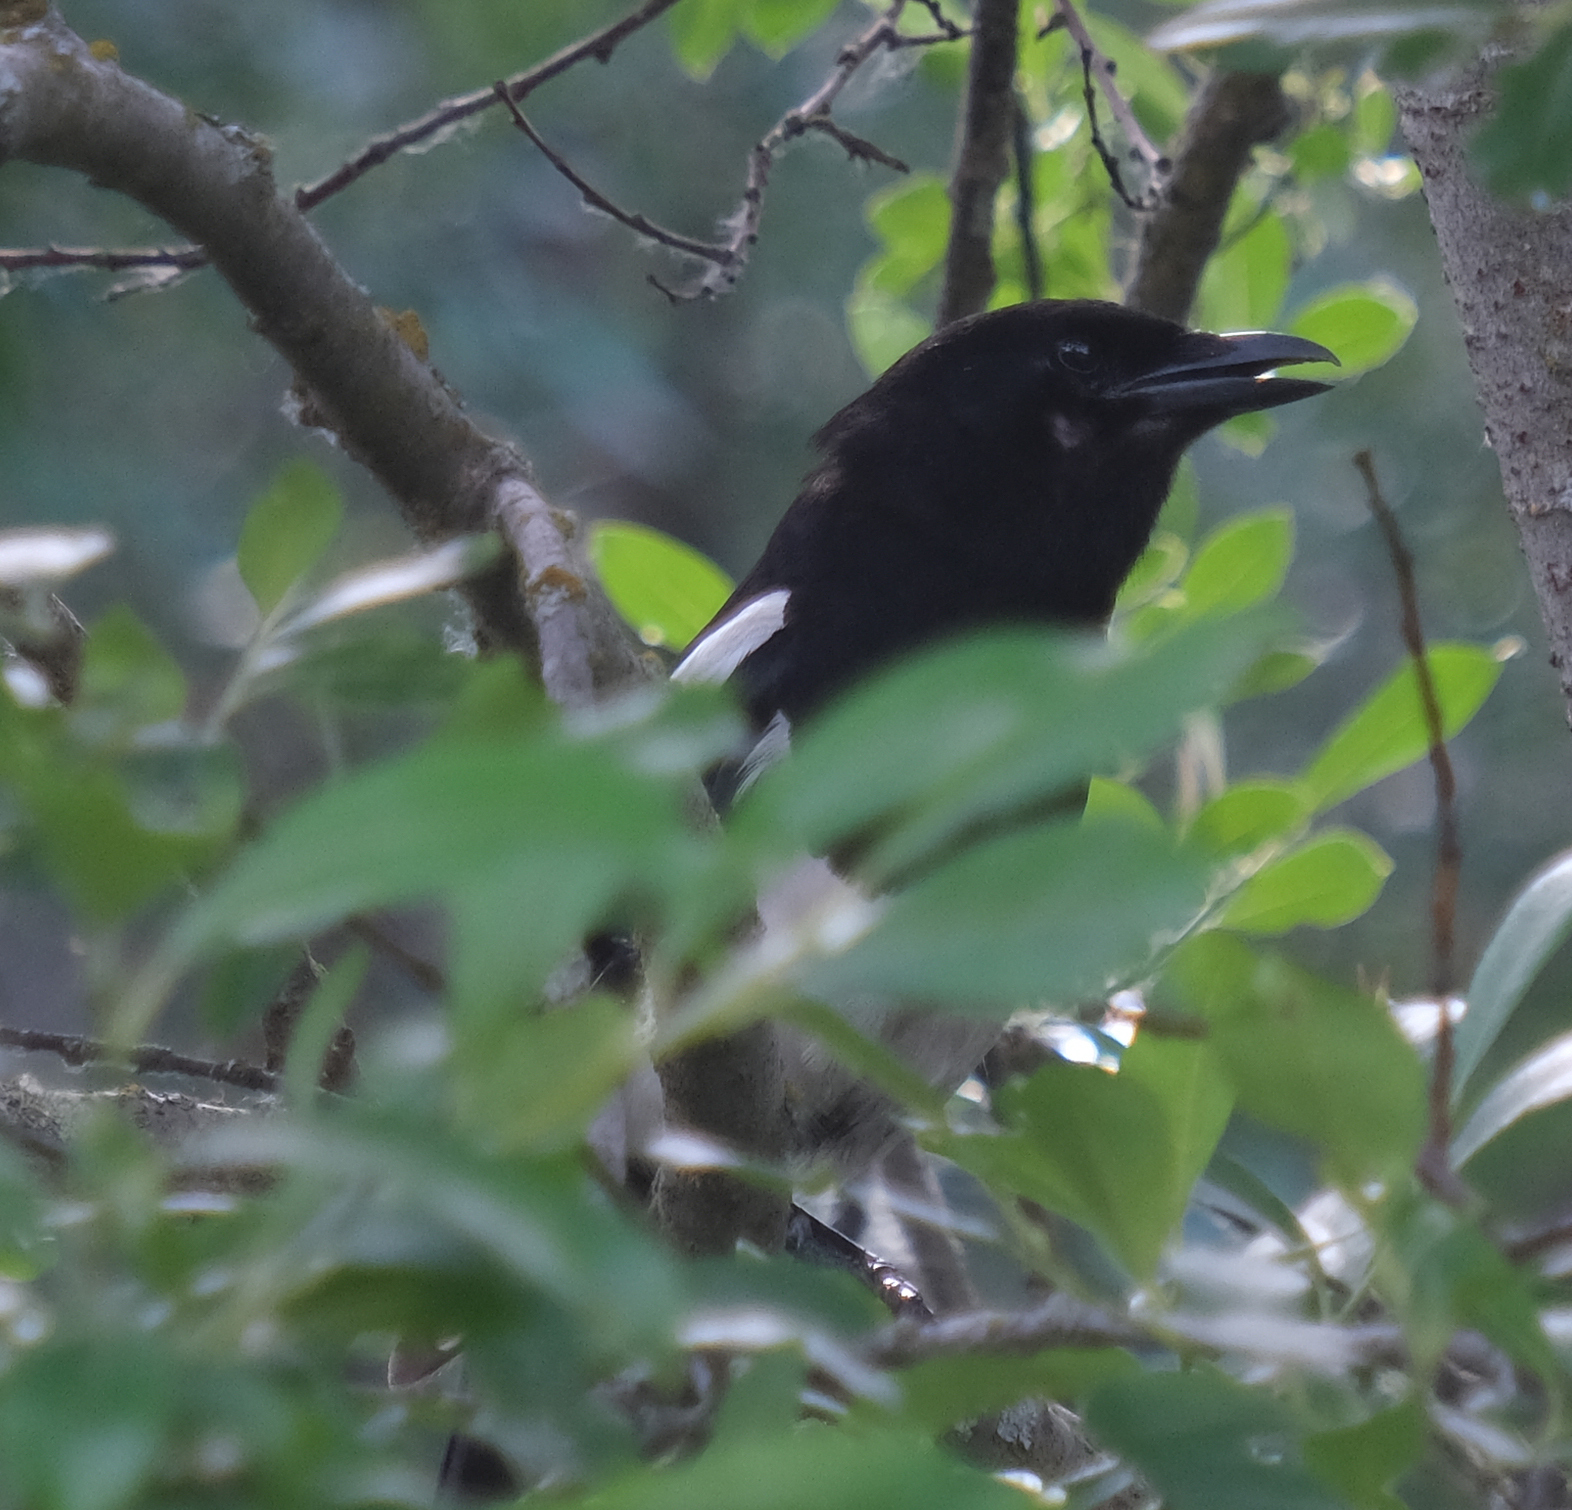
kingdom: Animalia
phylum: Chordata
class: Aves
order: Passeriformes
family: Corvidae
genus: Pica
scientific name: Pica hudsonia
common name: Black-billed magpie
